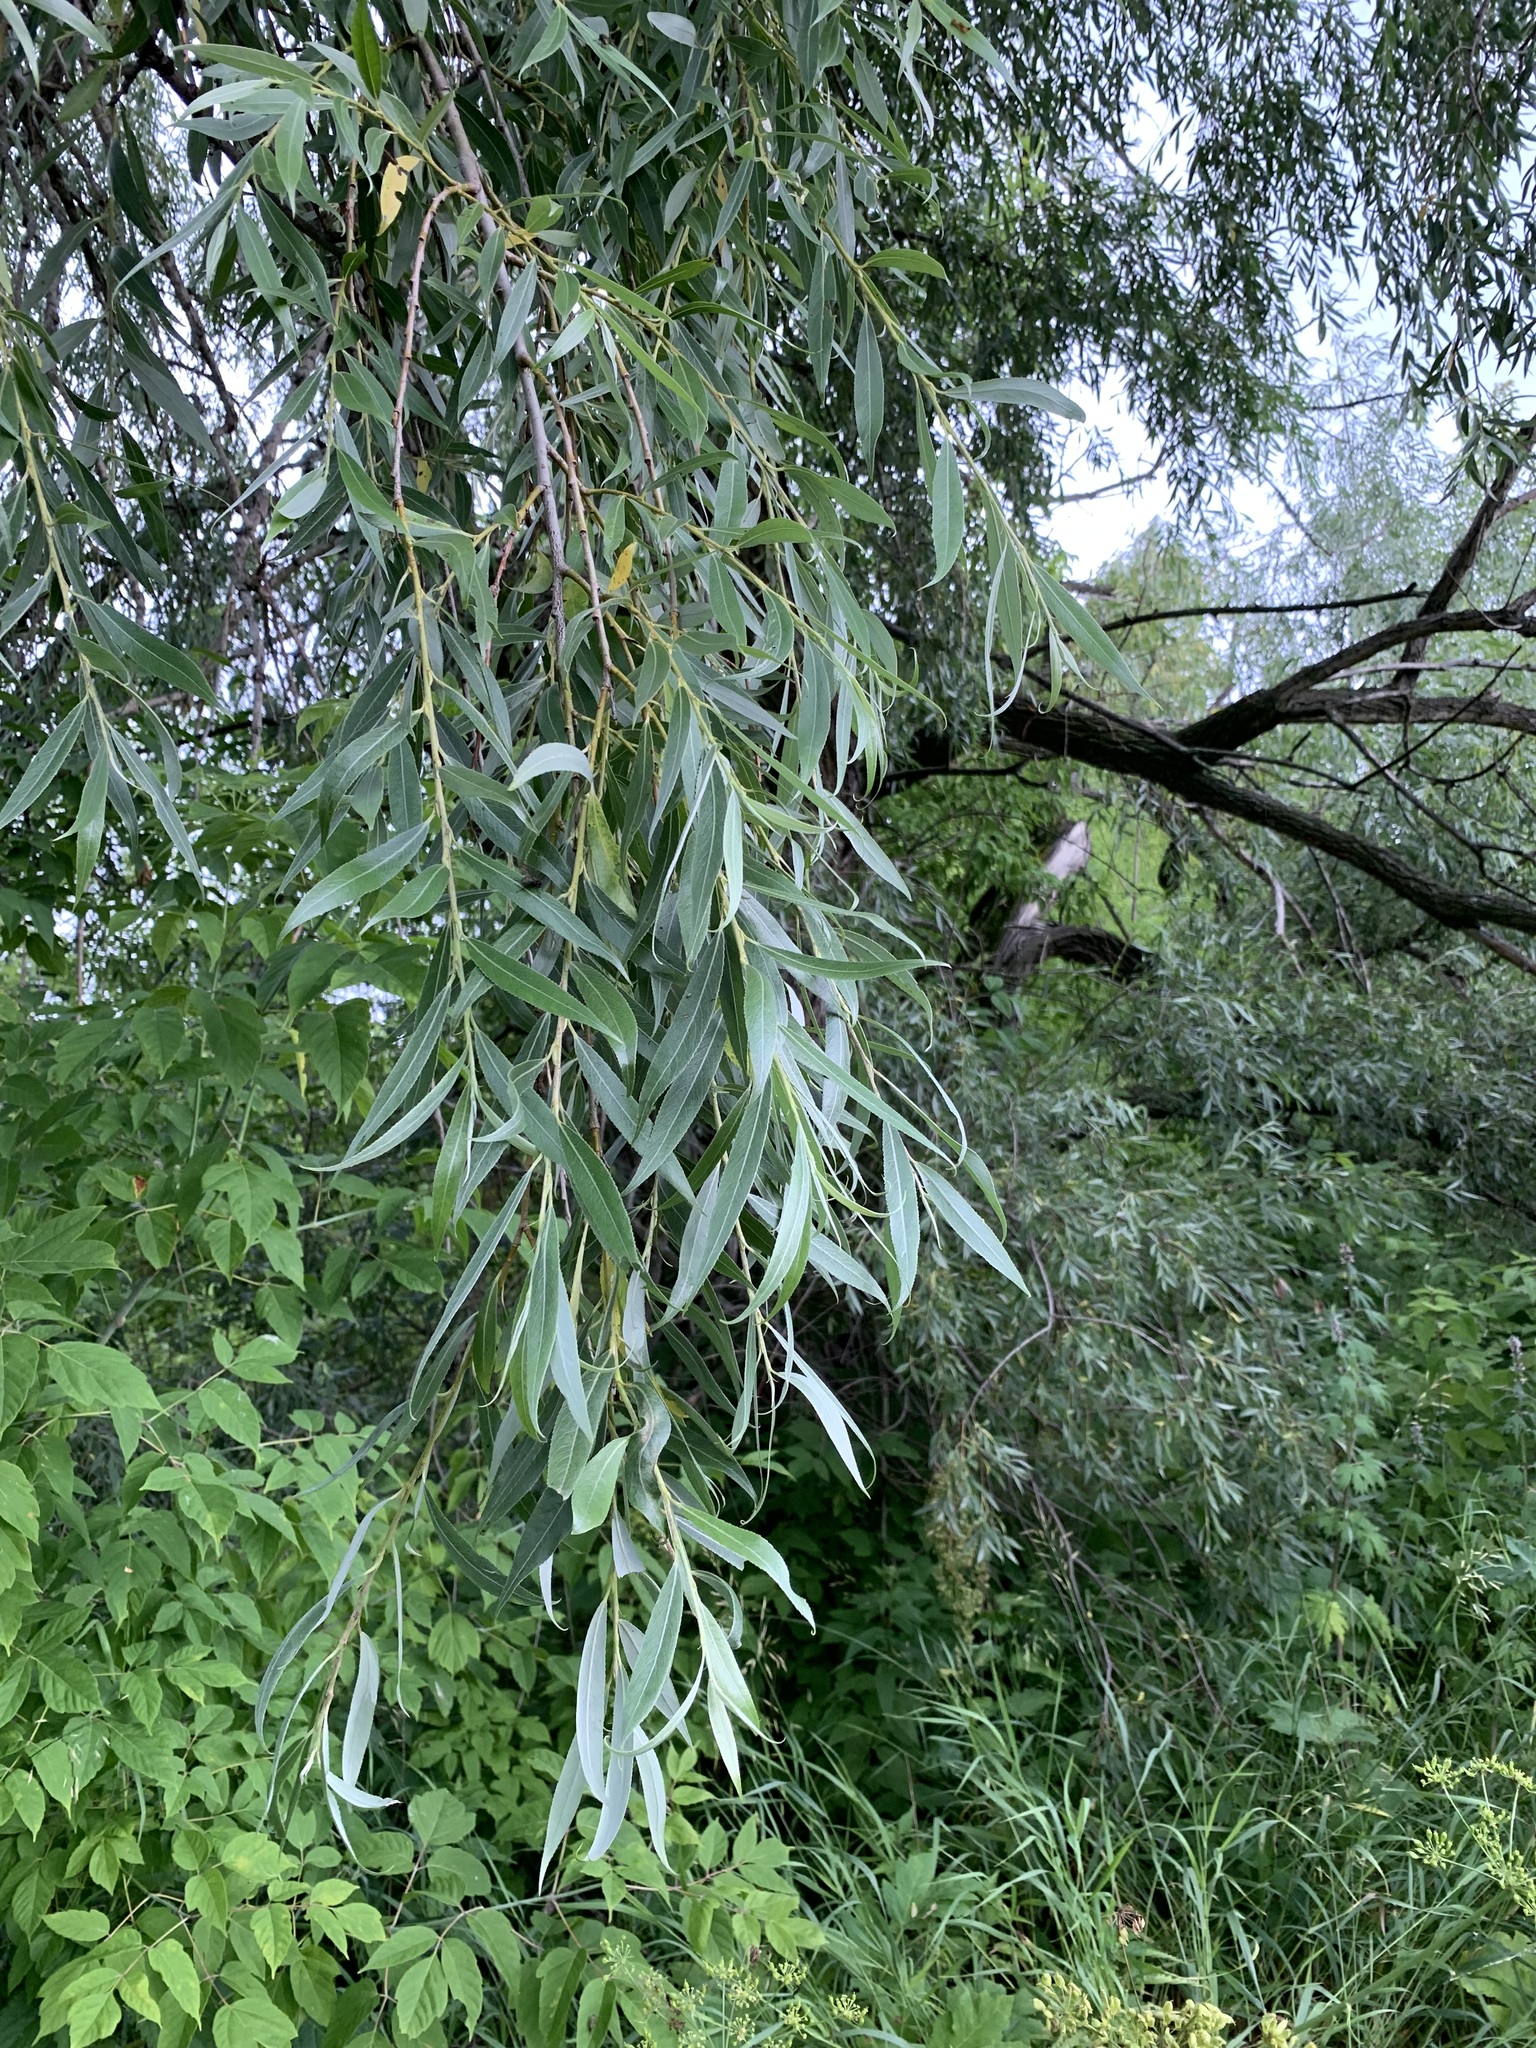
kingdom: Plantae
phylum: Tracheophyta
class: Magnoliopsida
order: Malpighiales
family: Salicaceae
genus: Salix
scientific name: Salix alba
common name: White willow
